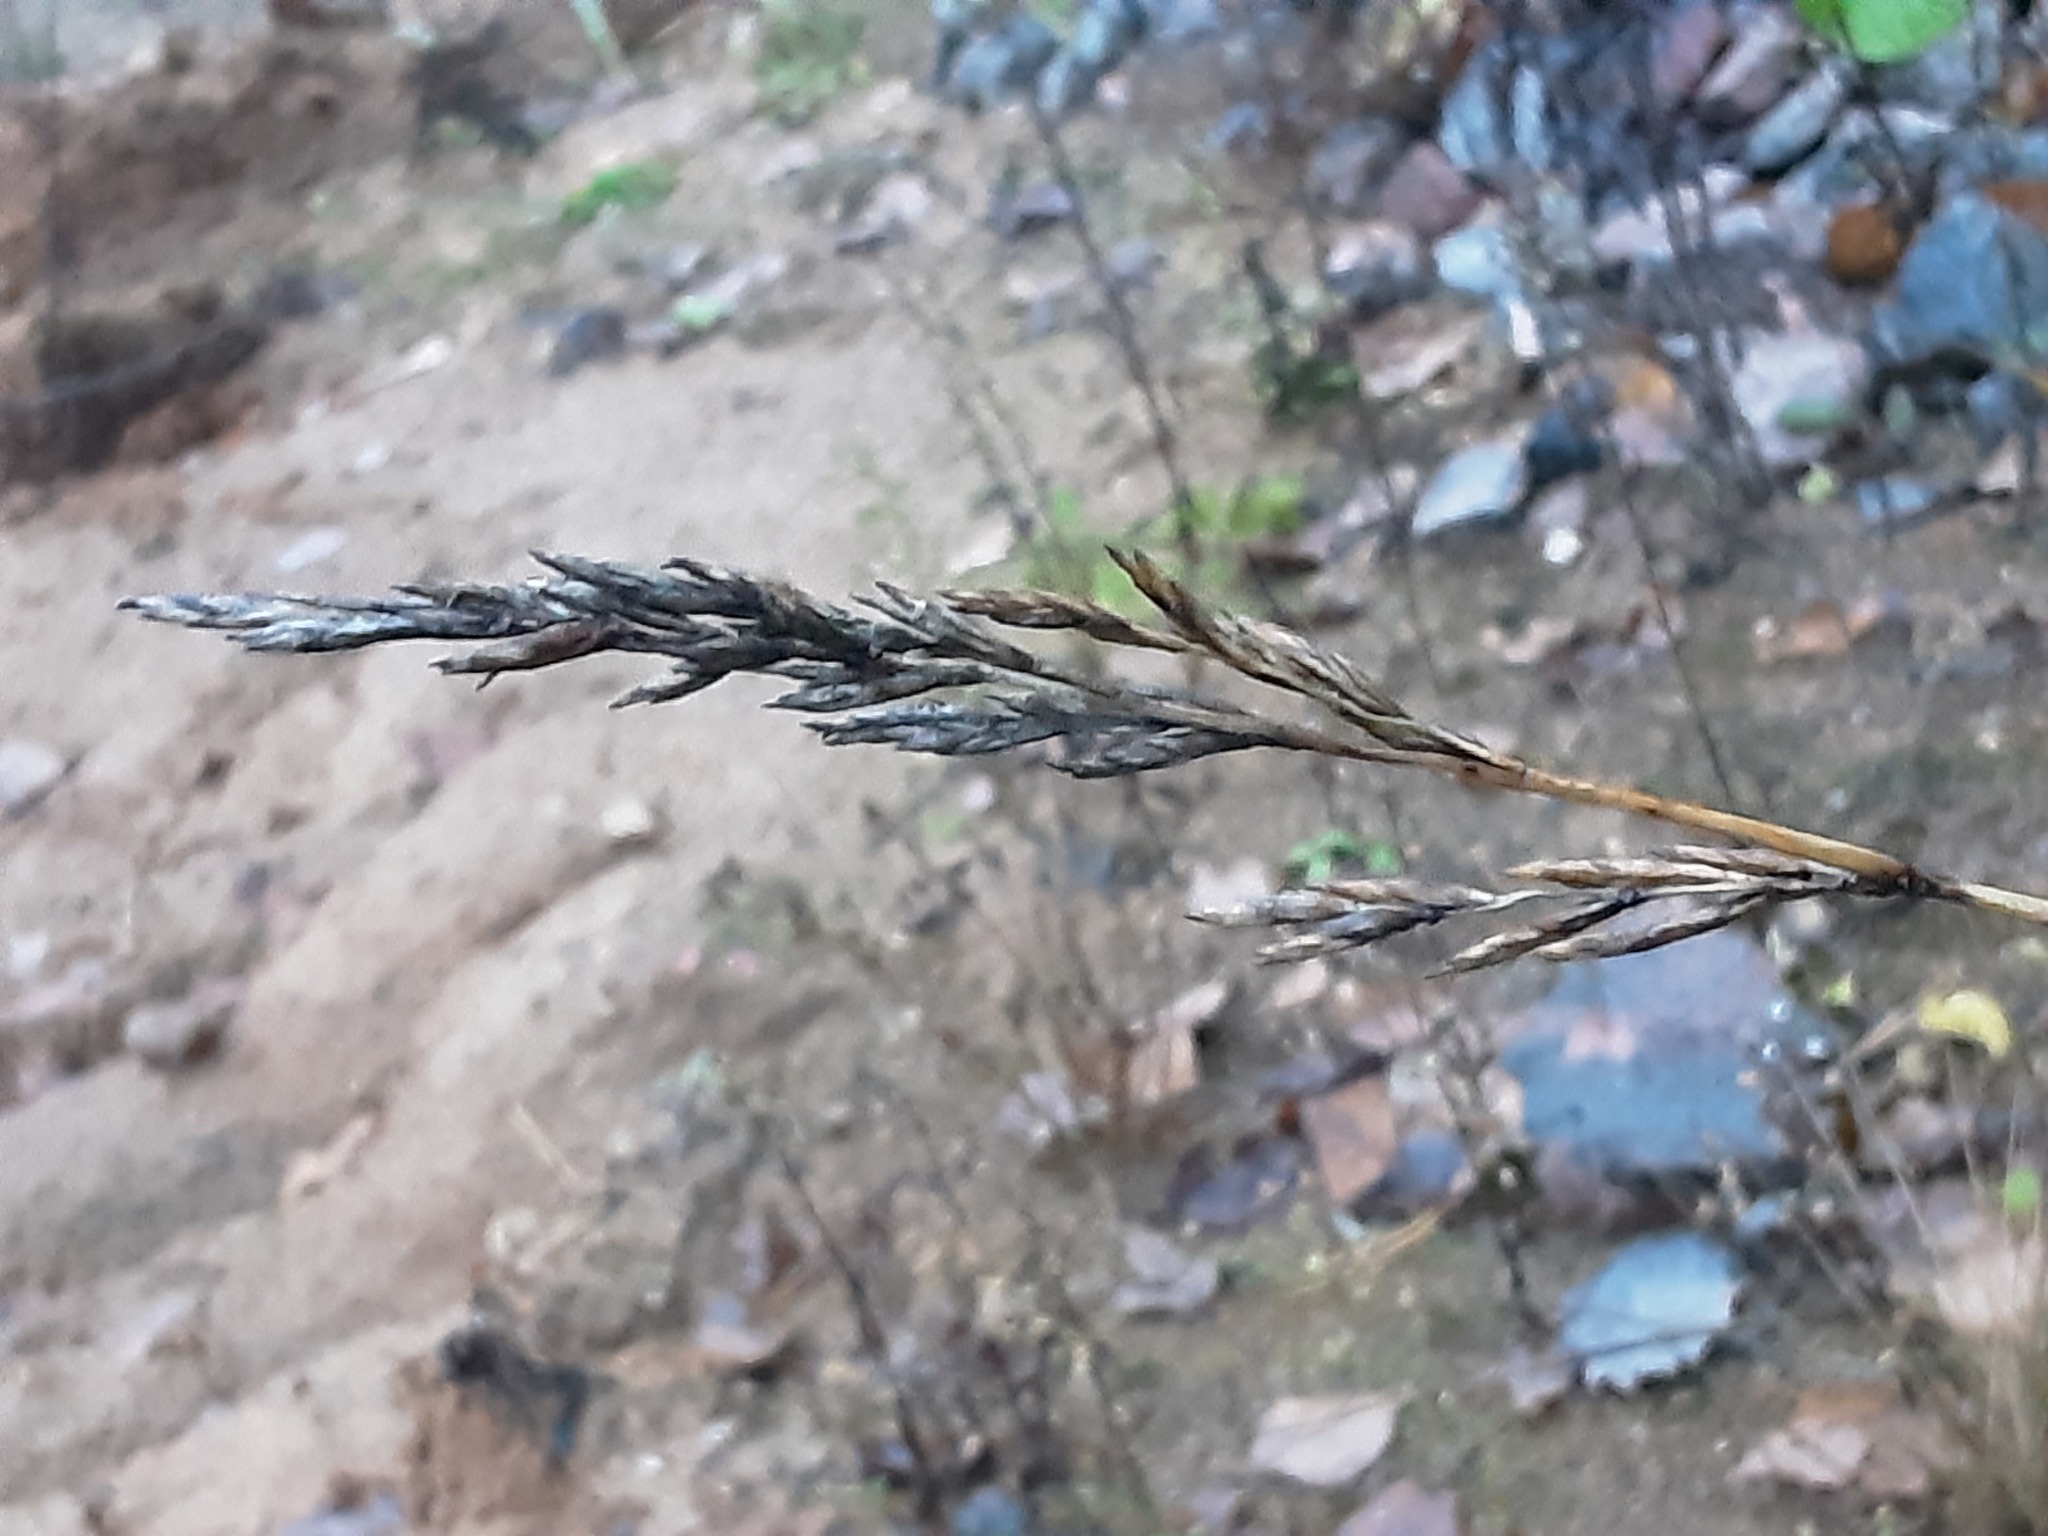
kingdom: Plantae
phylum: Tracheophyta
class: Liliopsida
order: Poales
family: Poaceae
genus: Lolium
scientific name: Lolium arundinaceum
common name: Reed fescue
